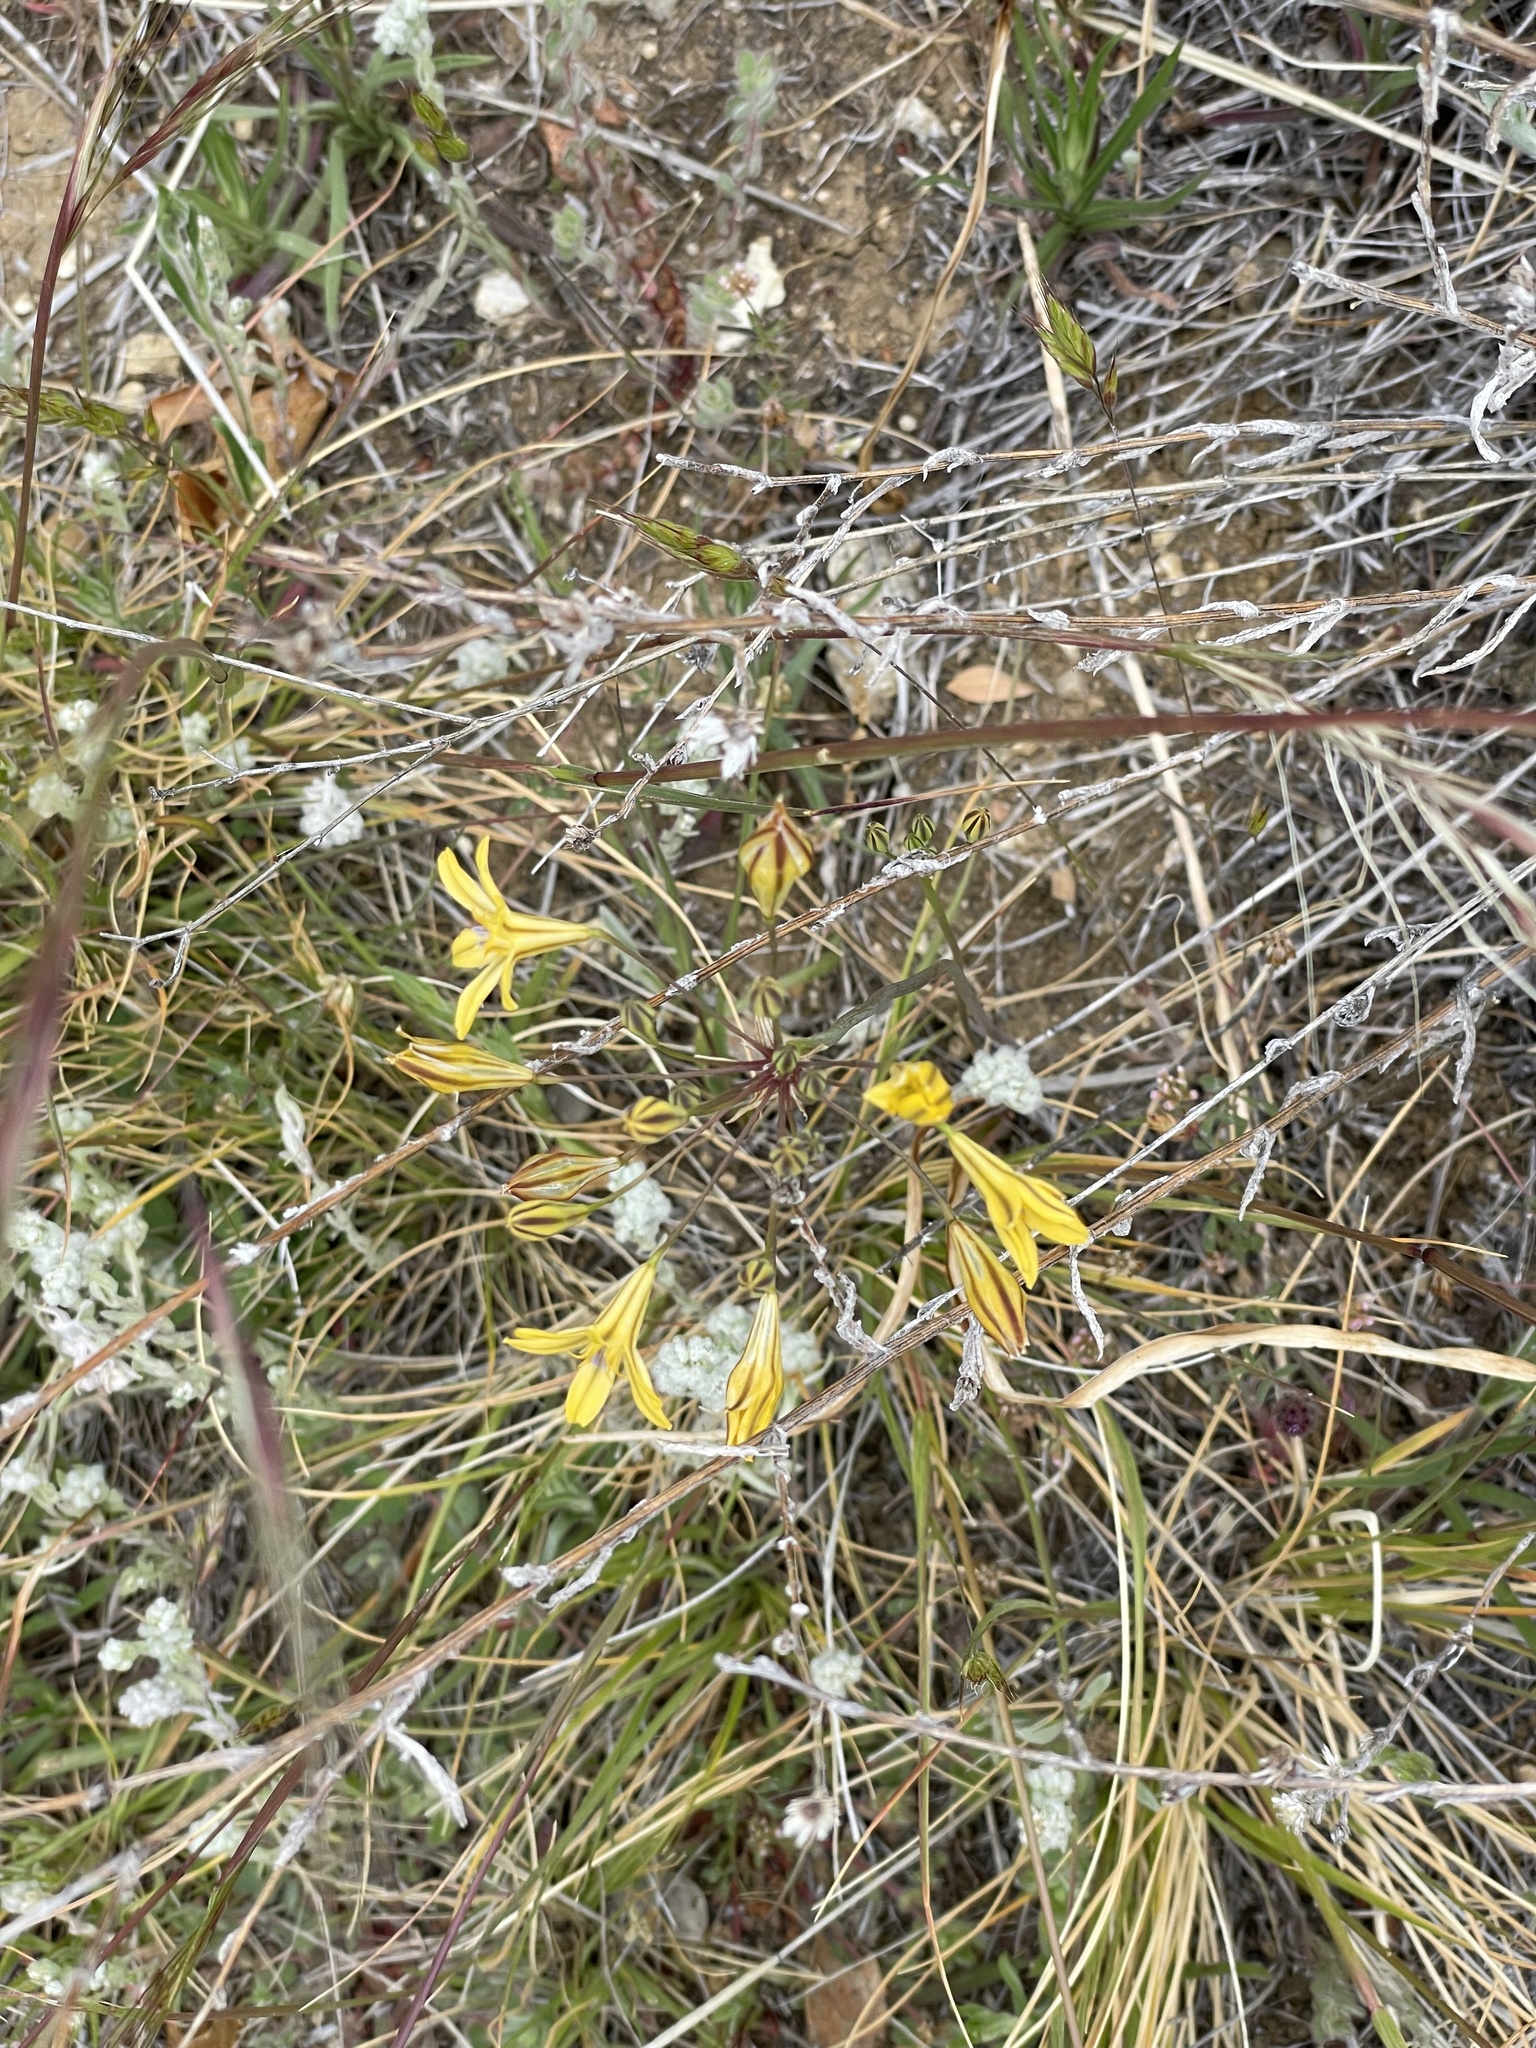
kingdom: Plantae
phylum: Tracheophyta
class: Liliopsida
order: Asparagales
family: Asparagaceae
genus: Triteleia
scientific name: Triteleia ixioides
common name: Yellow-brodiaea
